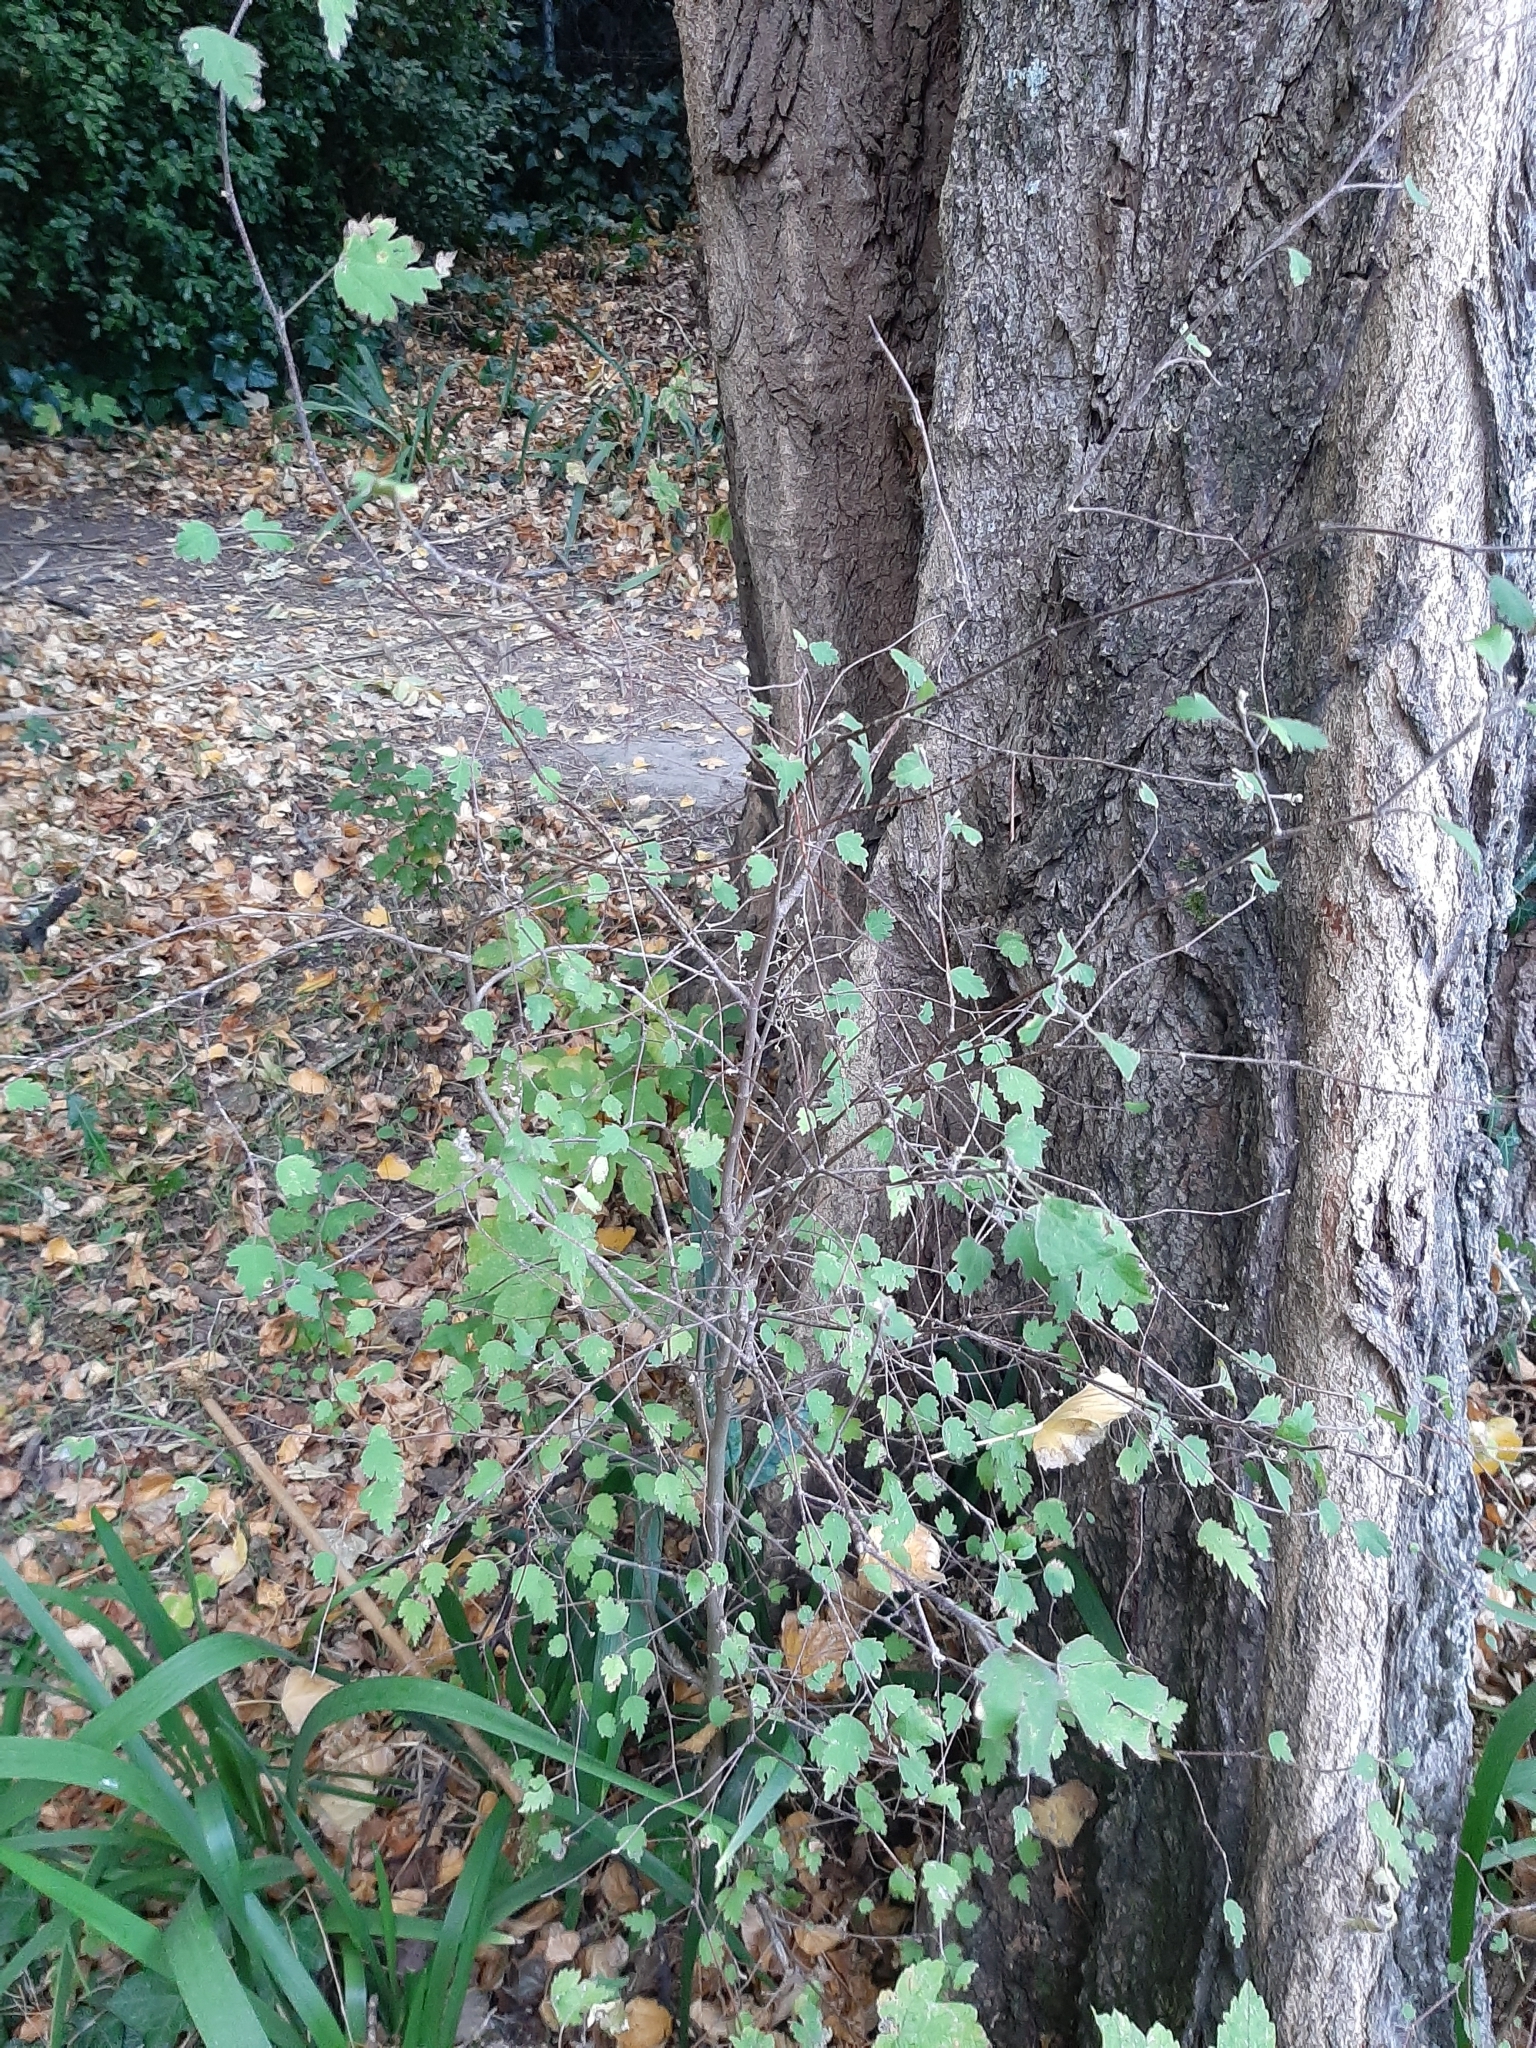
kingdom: Plantae
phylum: Tracheophyta
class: Magnoliopsida
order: Malvales
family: Malvaceae
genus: Plagianthus
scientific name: Plagianthus regius
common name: Manatu
